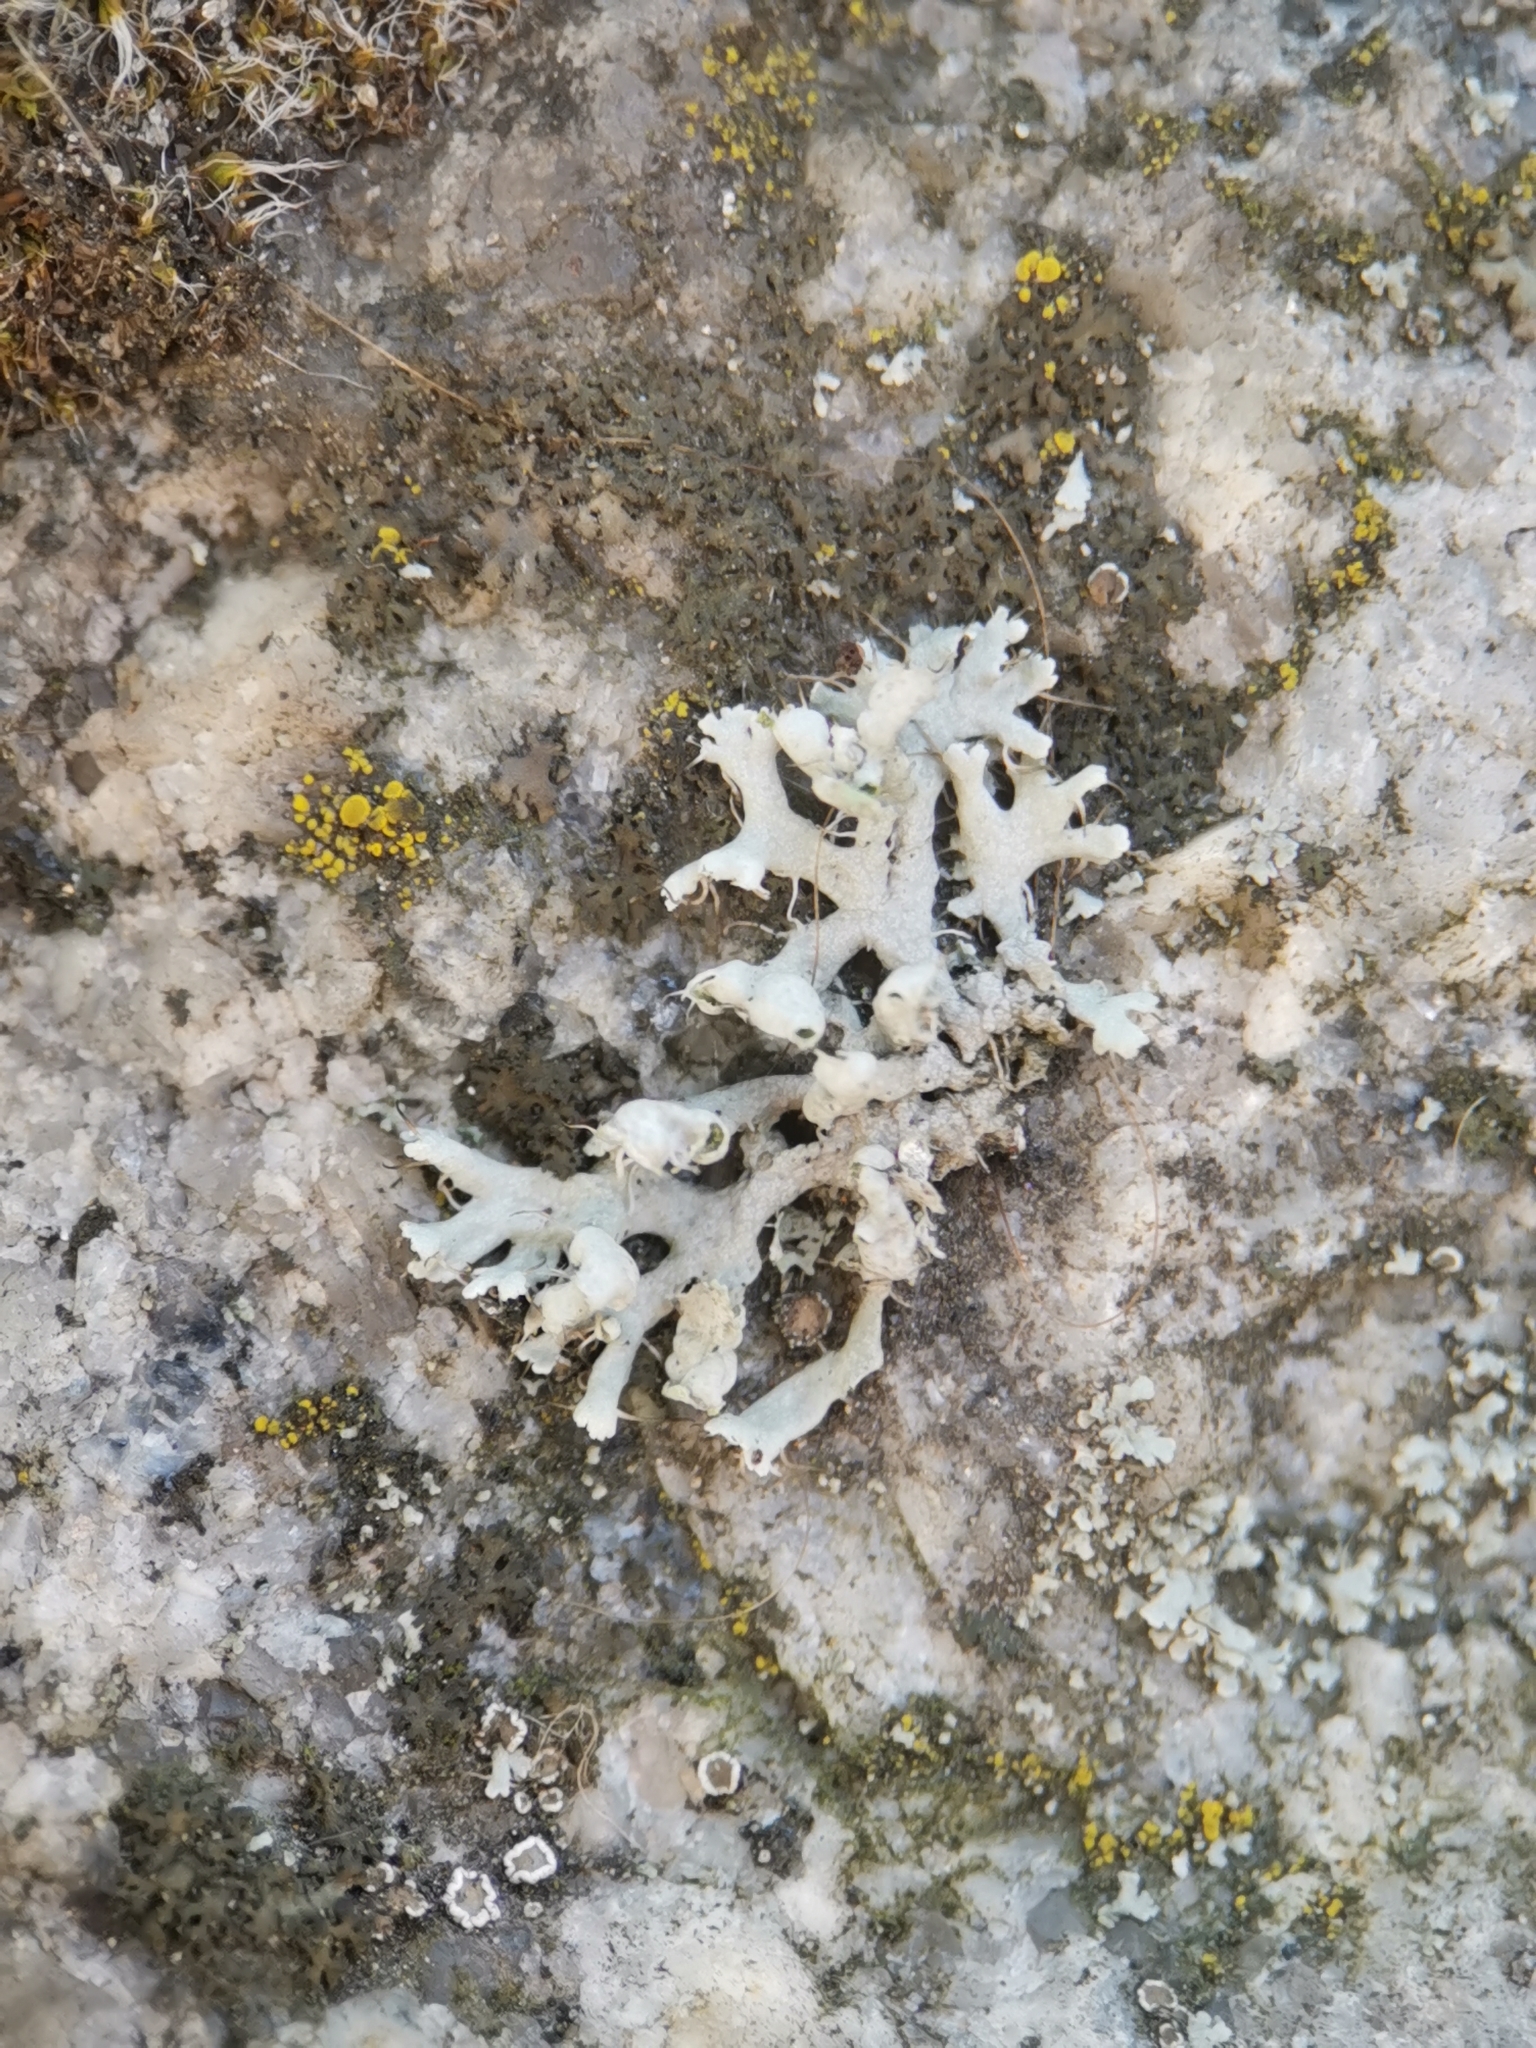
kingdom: Fungi
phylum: Ascomycota
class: Lecanoromycetes
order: Caliciales
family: Physciaceae
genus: Physcia
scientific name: Physcia adscendens
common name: Hooded rosette lichen
